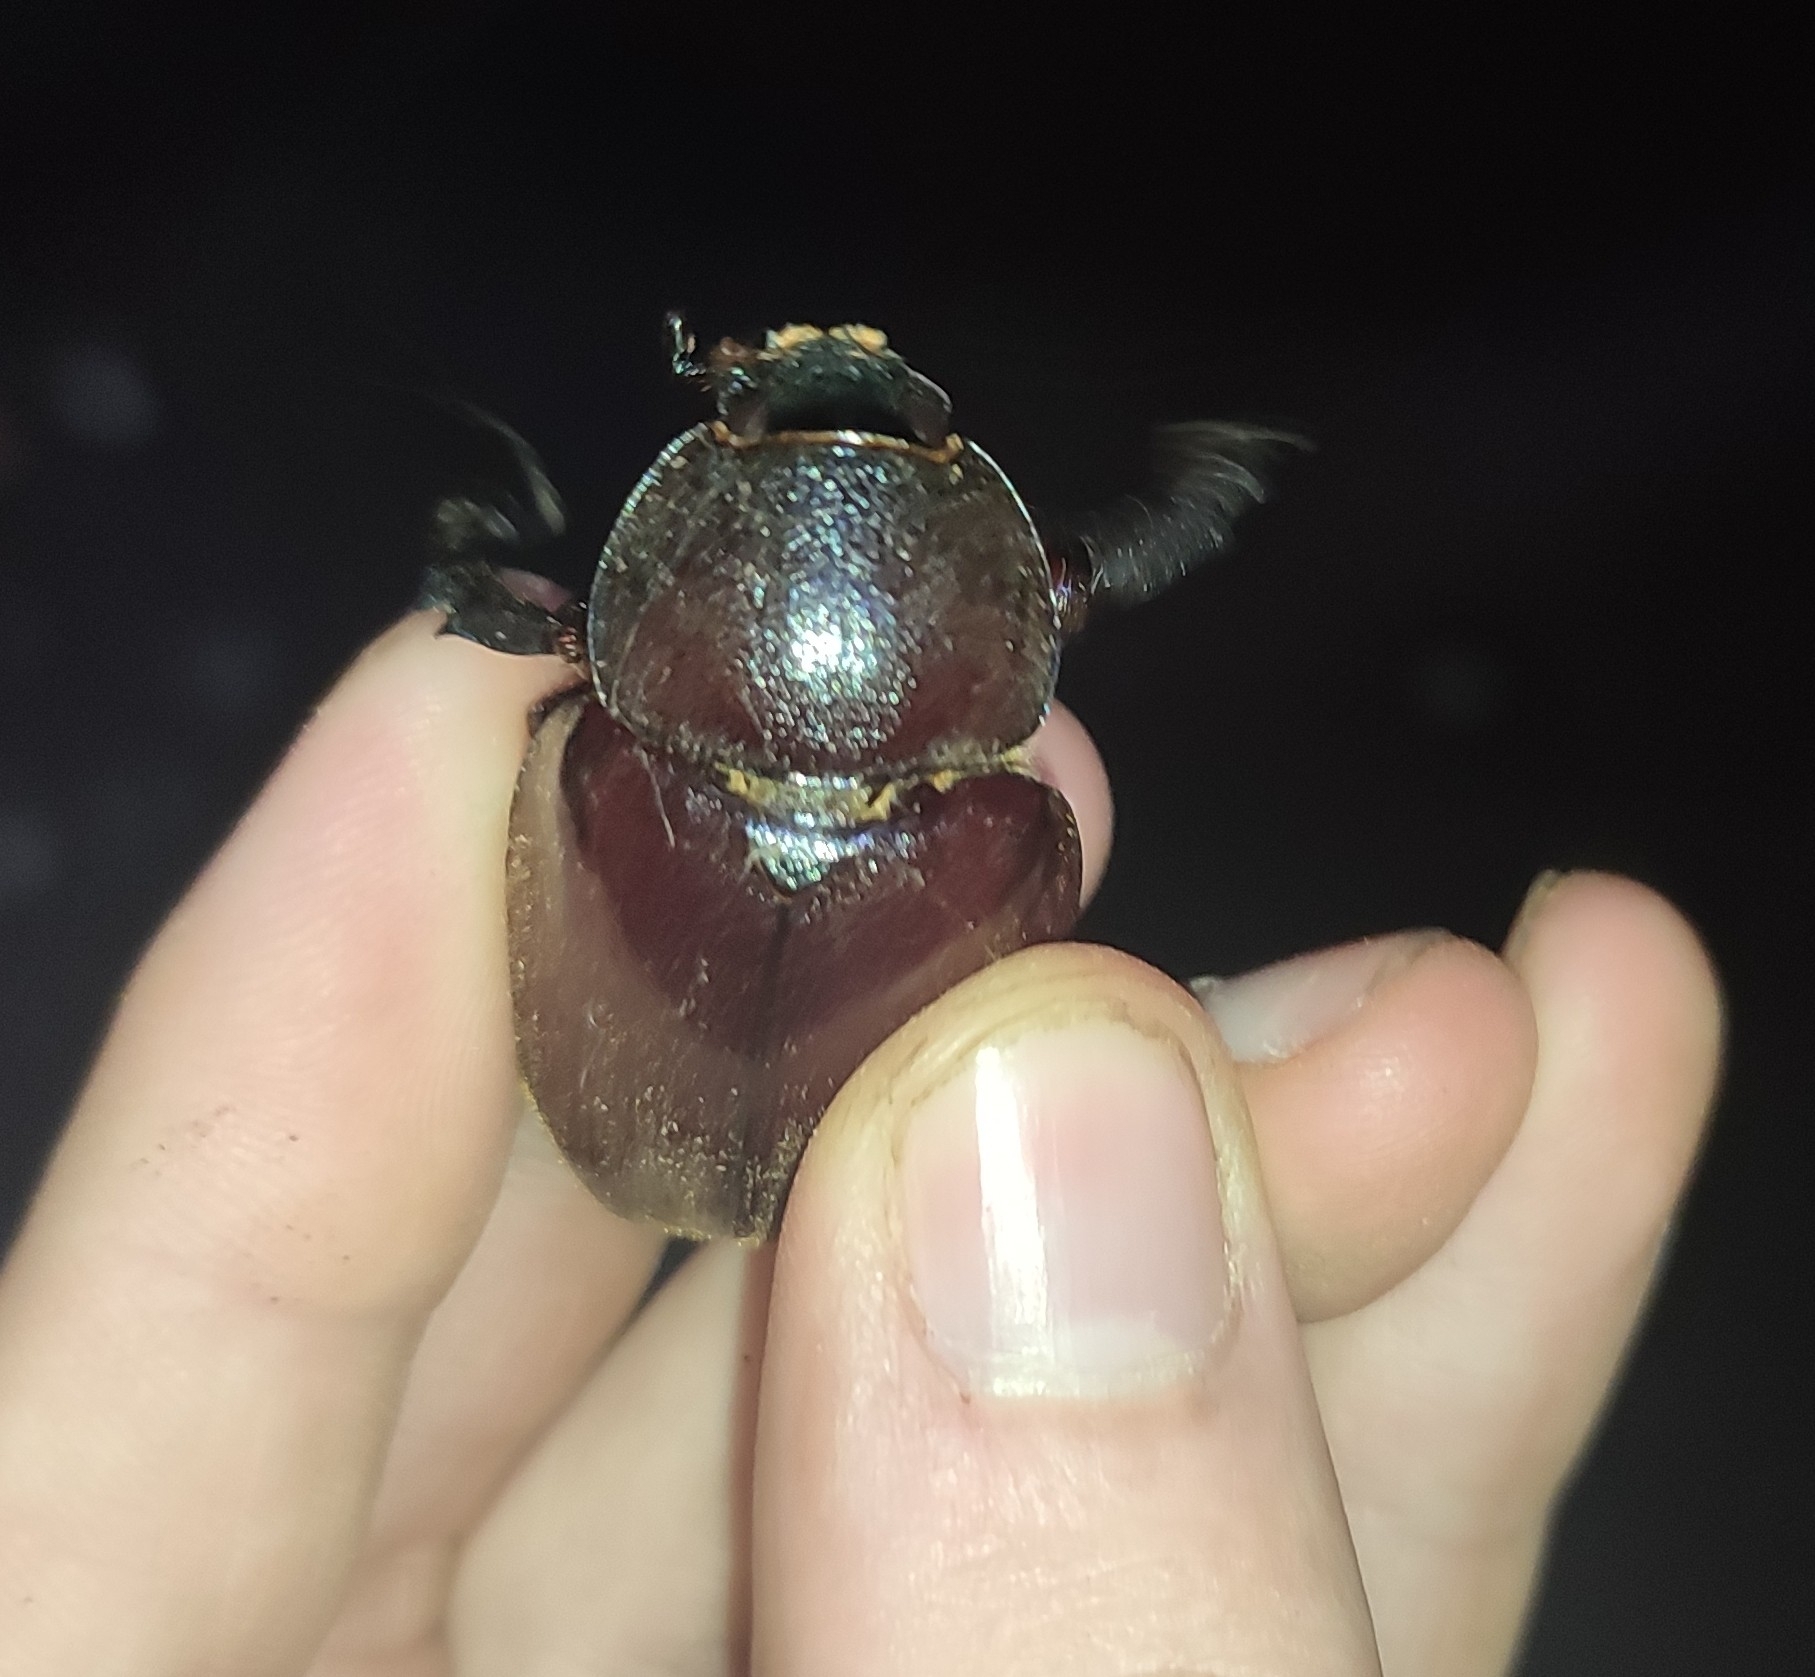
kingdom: Animalia
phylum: Arthropoda
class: Insecta
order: Coleoptera
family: Scarabaeidae
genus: Xylotrupes
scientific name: Xylotrupes sumatrensis
